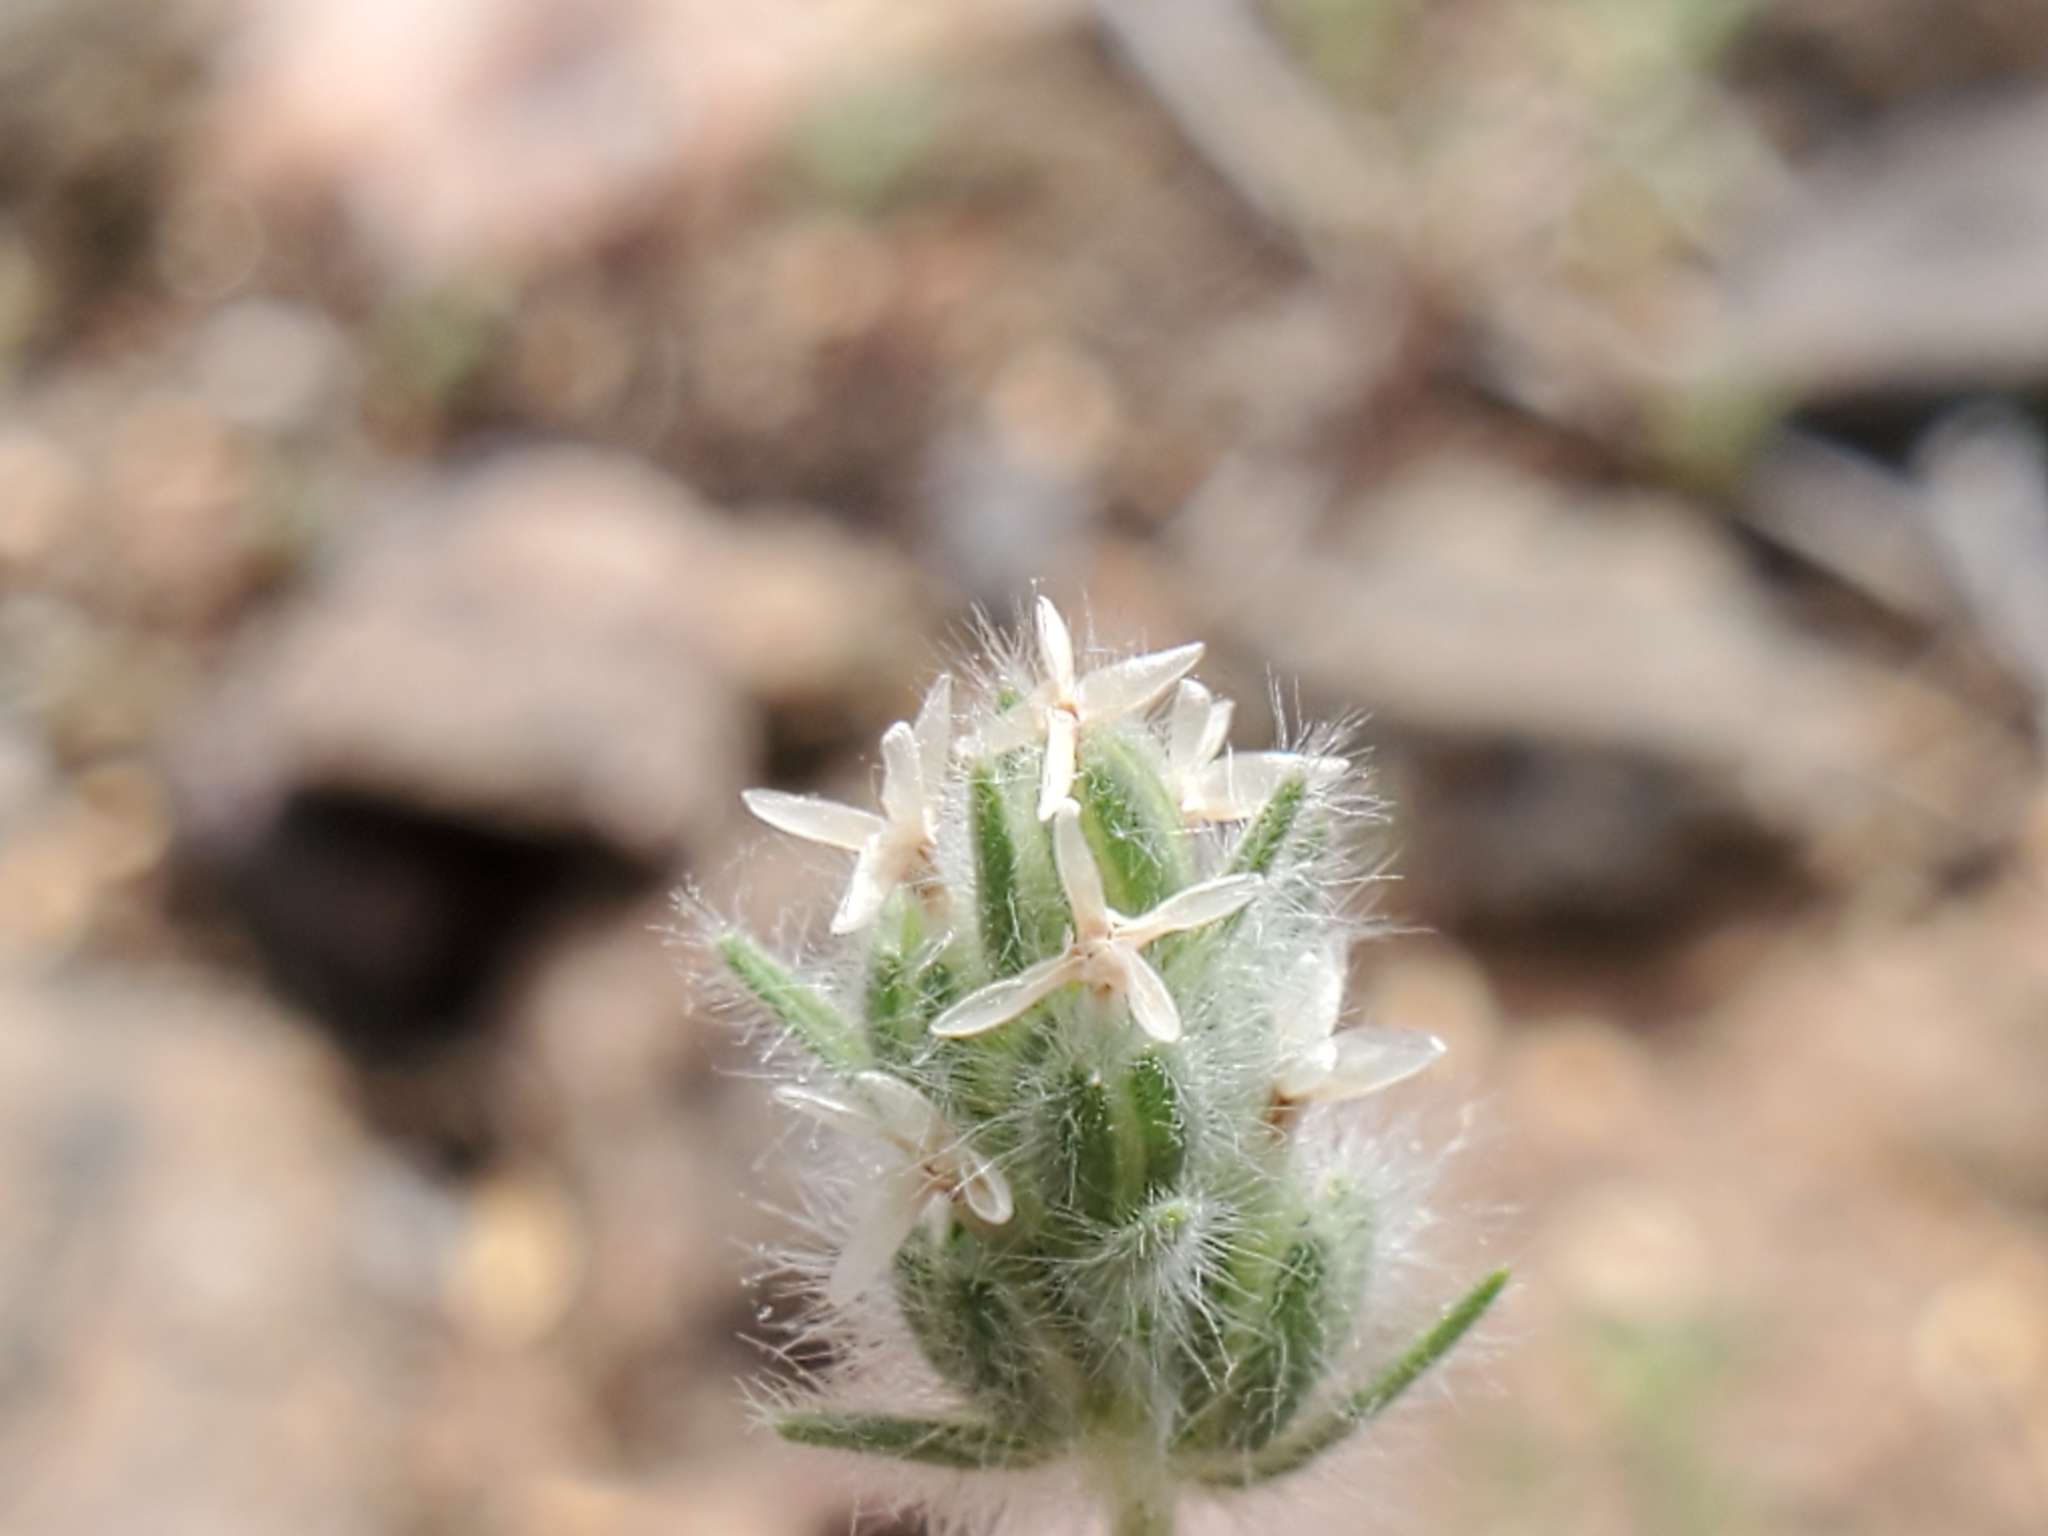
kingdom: Plantae
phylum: Tracheophyta
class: Magnoliopsida
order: Lamiales
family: Plantaginaceae
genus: Plantago
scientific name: Plantago patagonica
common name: Patagonia indian-wheat
